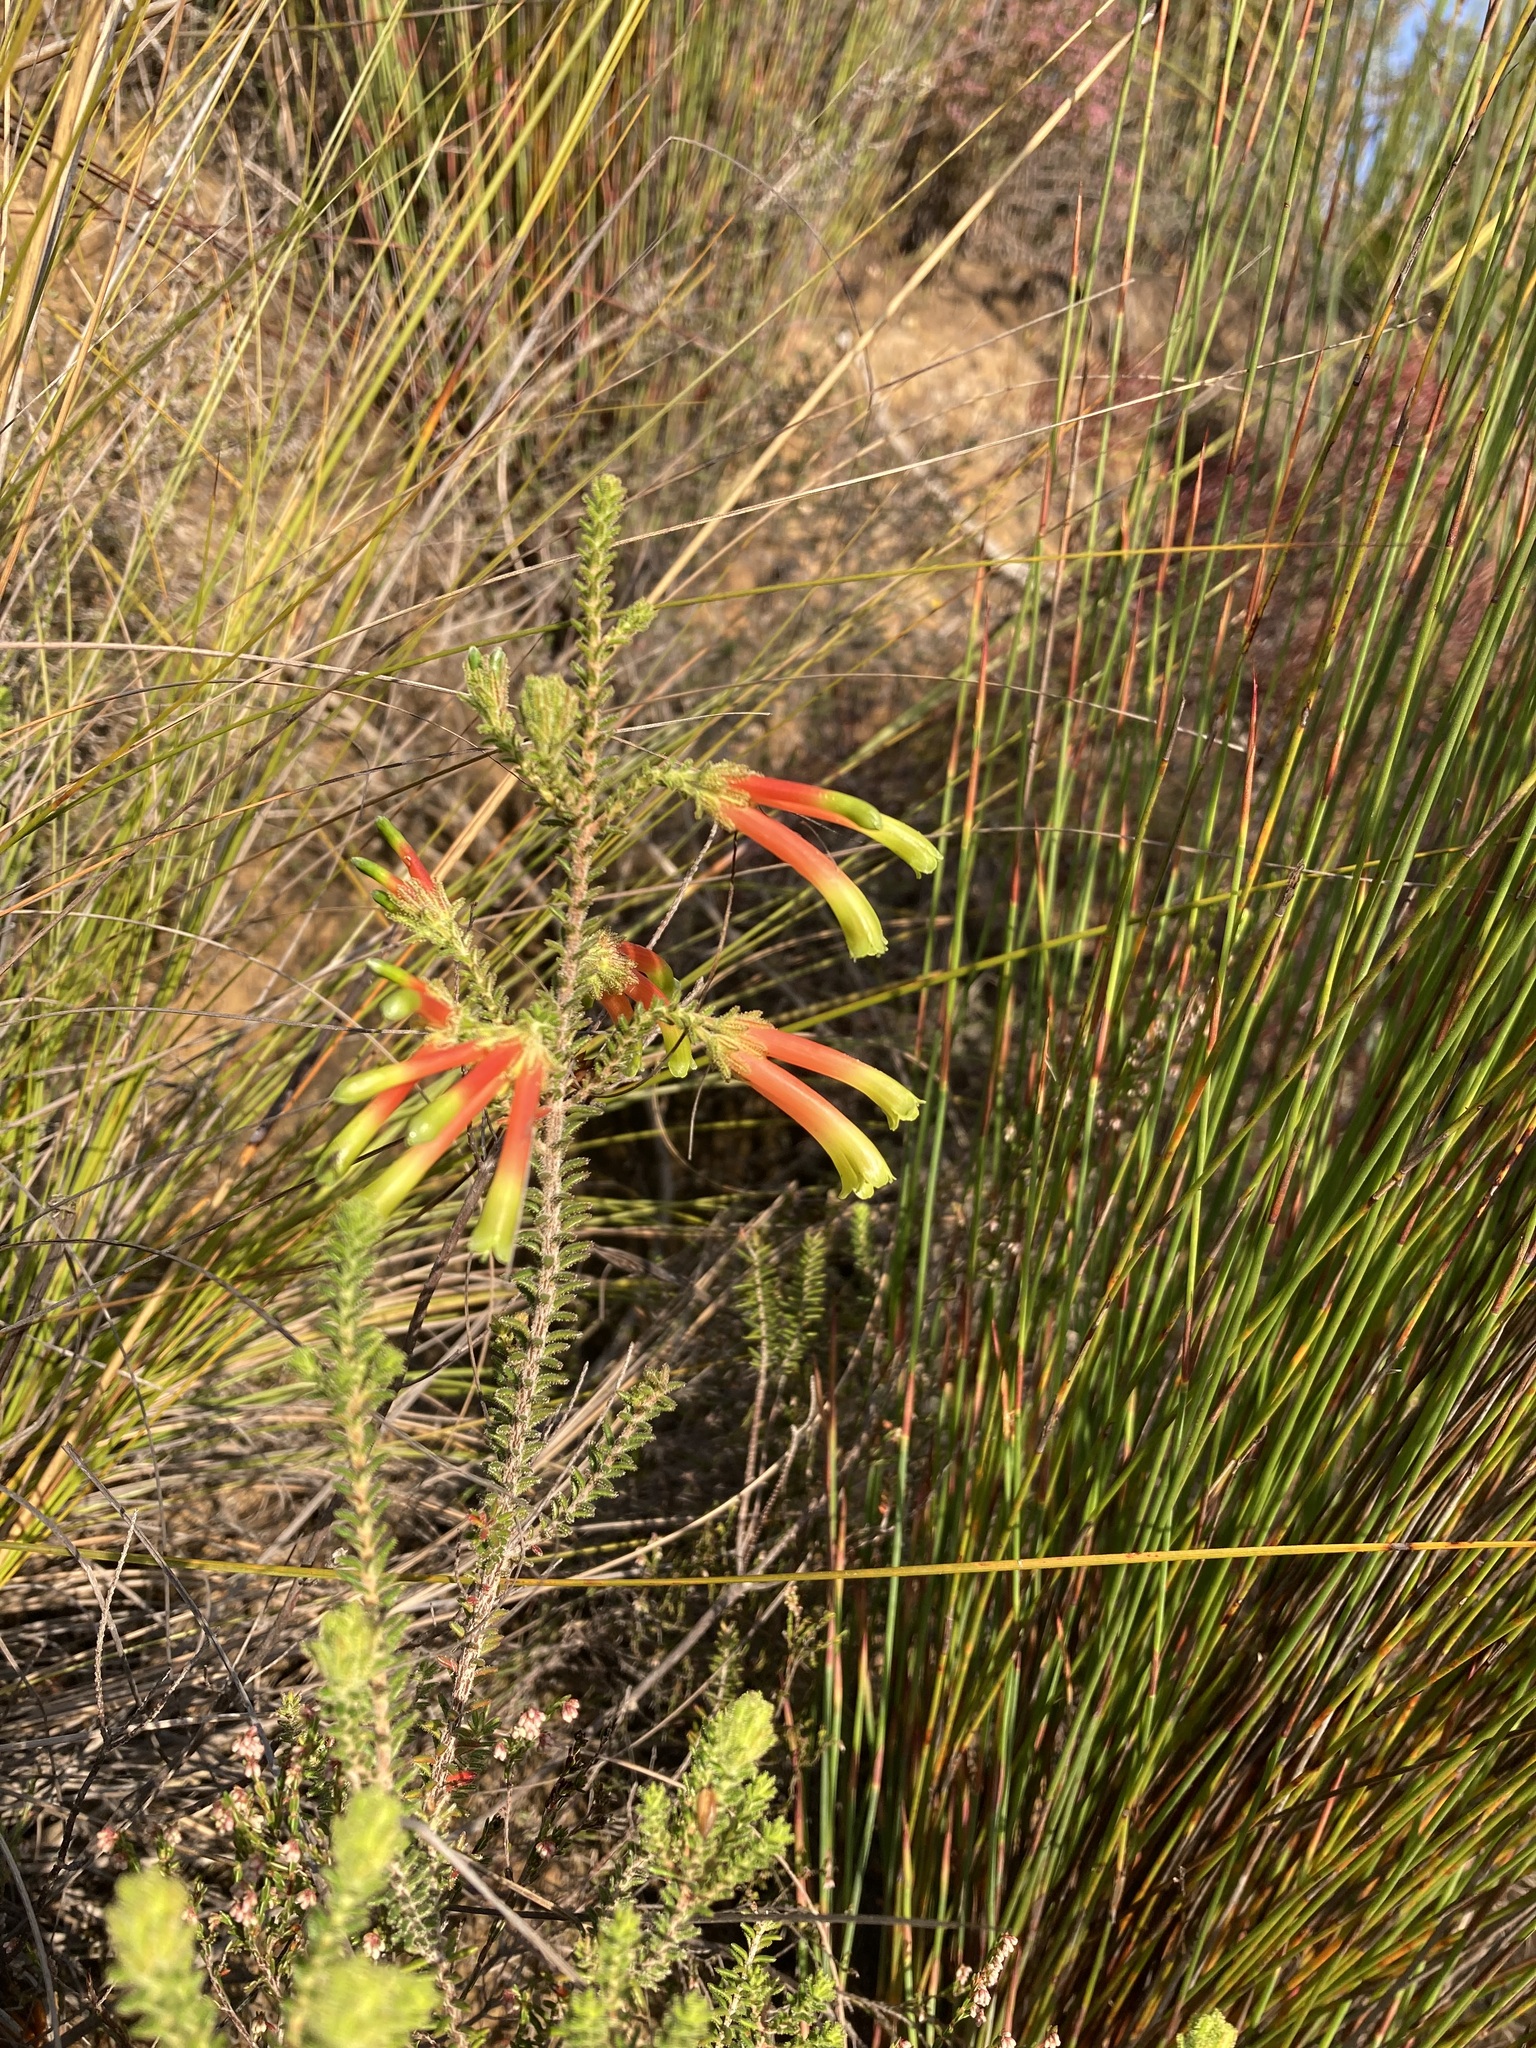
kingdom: Plantae
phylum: Tracheophyta
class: Magnoliopsida
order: Ericales
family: Ericaceae
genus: Erica
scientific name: Erica croceovirens
